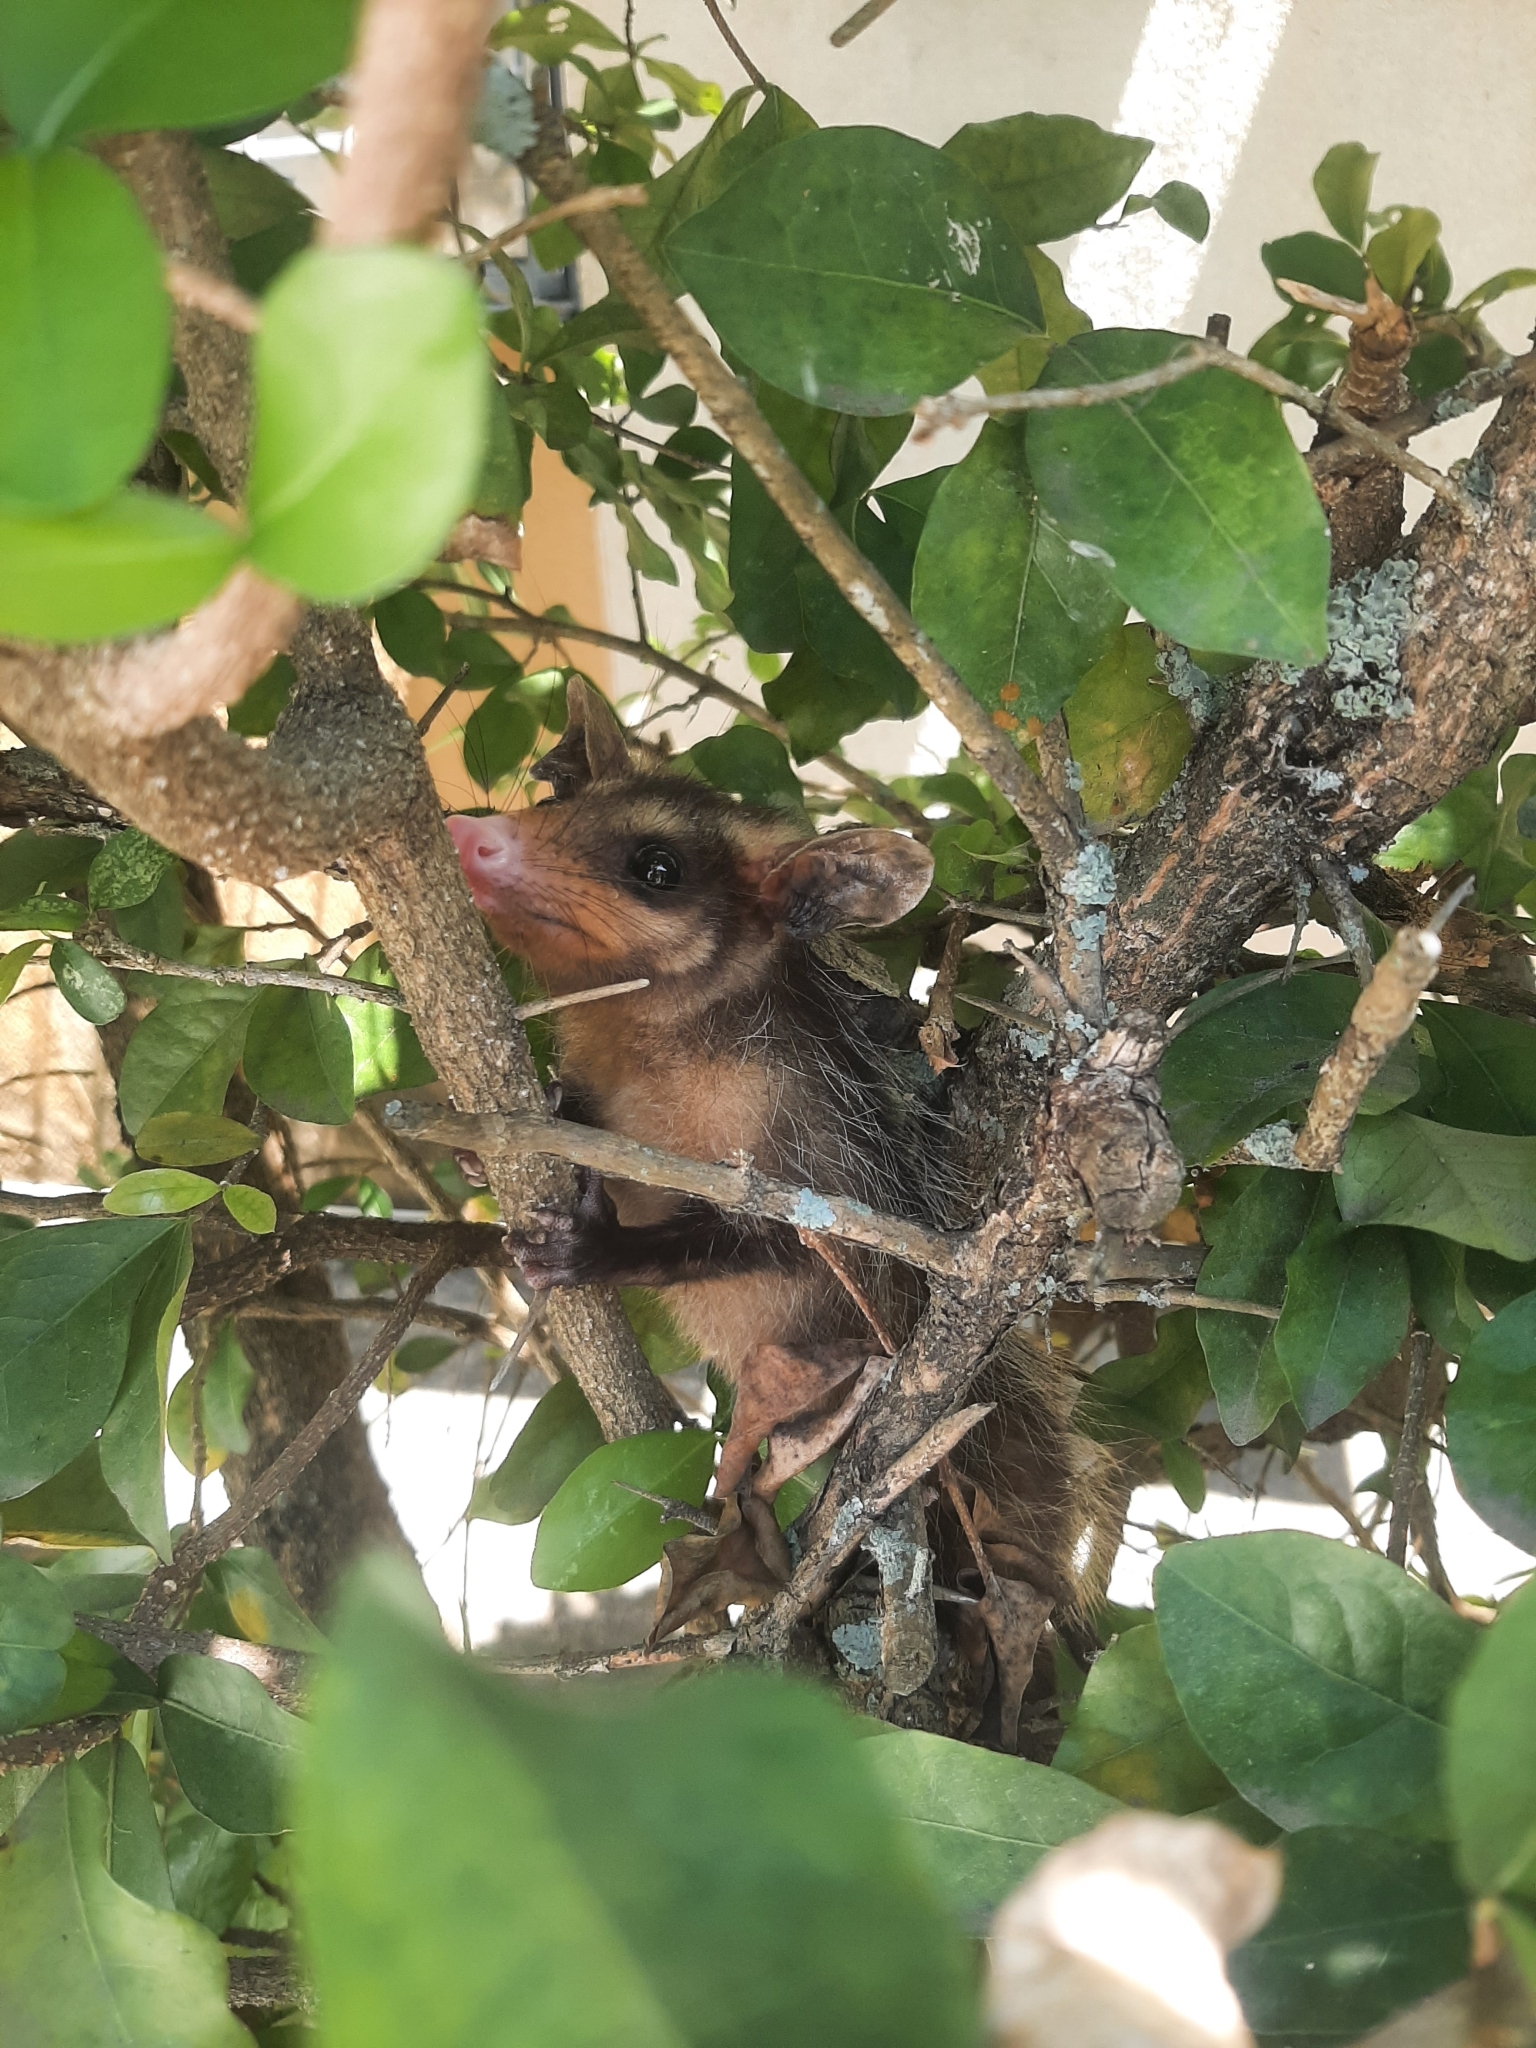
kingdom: Animalia
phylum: Chordata
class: Mammalia
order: Didelphimorphia
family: Didelphidae
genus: Didelphis
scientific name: Didelphis aurita
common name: Big-eared opossum
